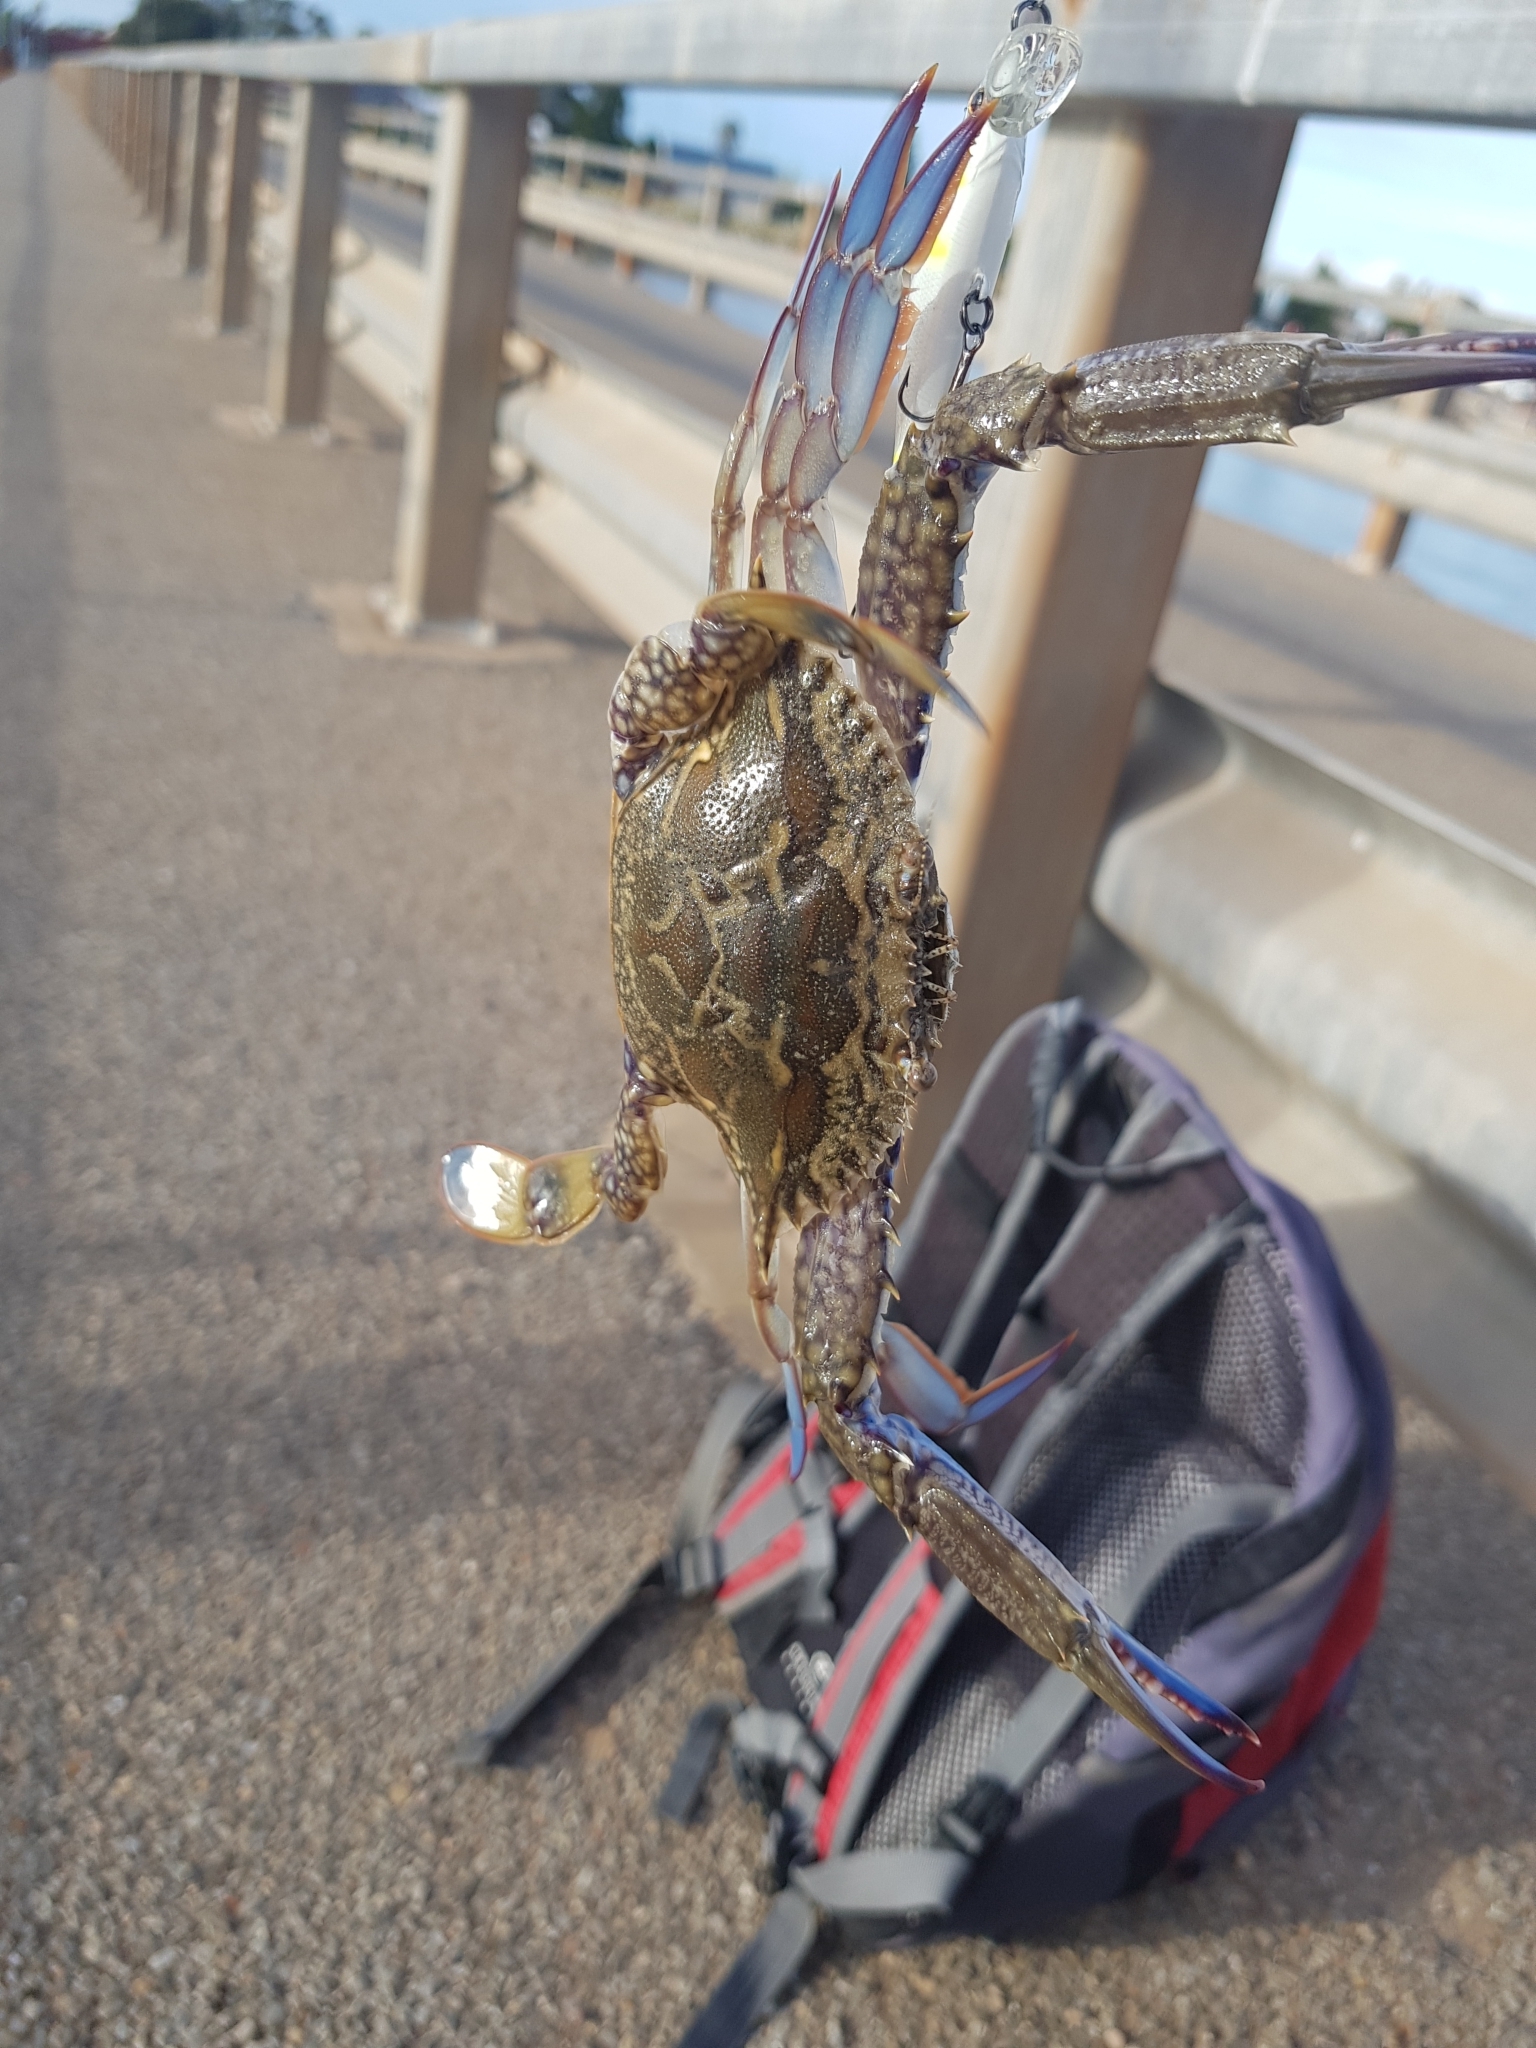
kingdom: Animalia
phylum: Arthropoda
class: Malacostraca
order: Decapoda
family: Portunidae
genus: Portunus
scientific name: Portunus armatus
